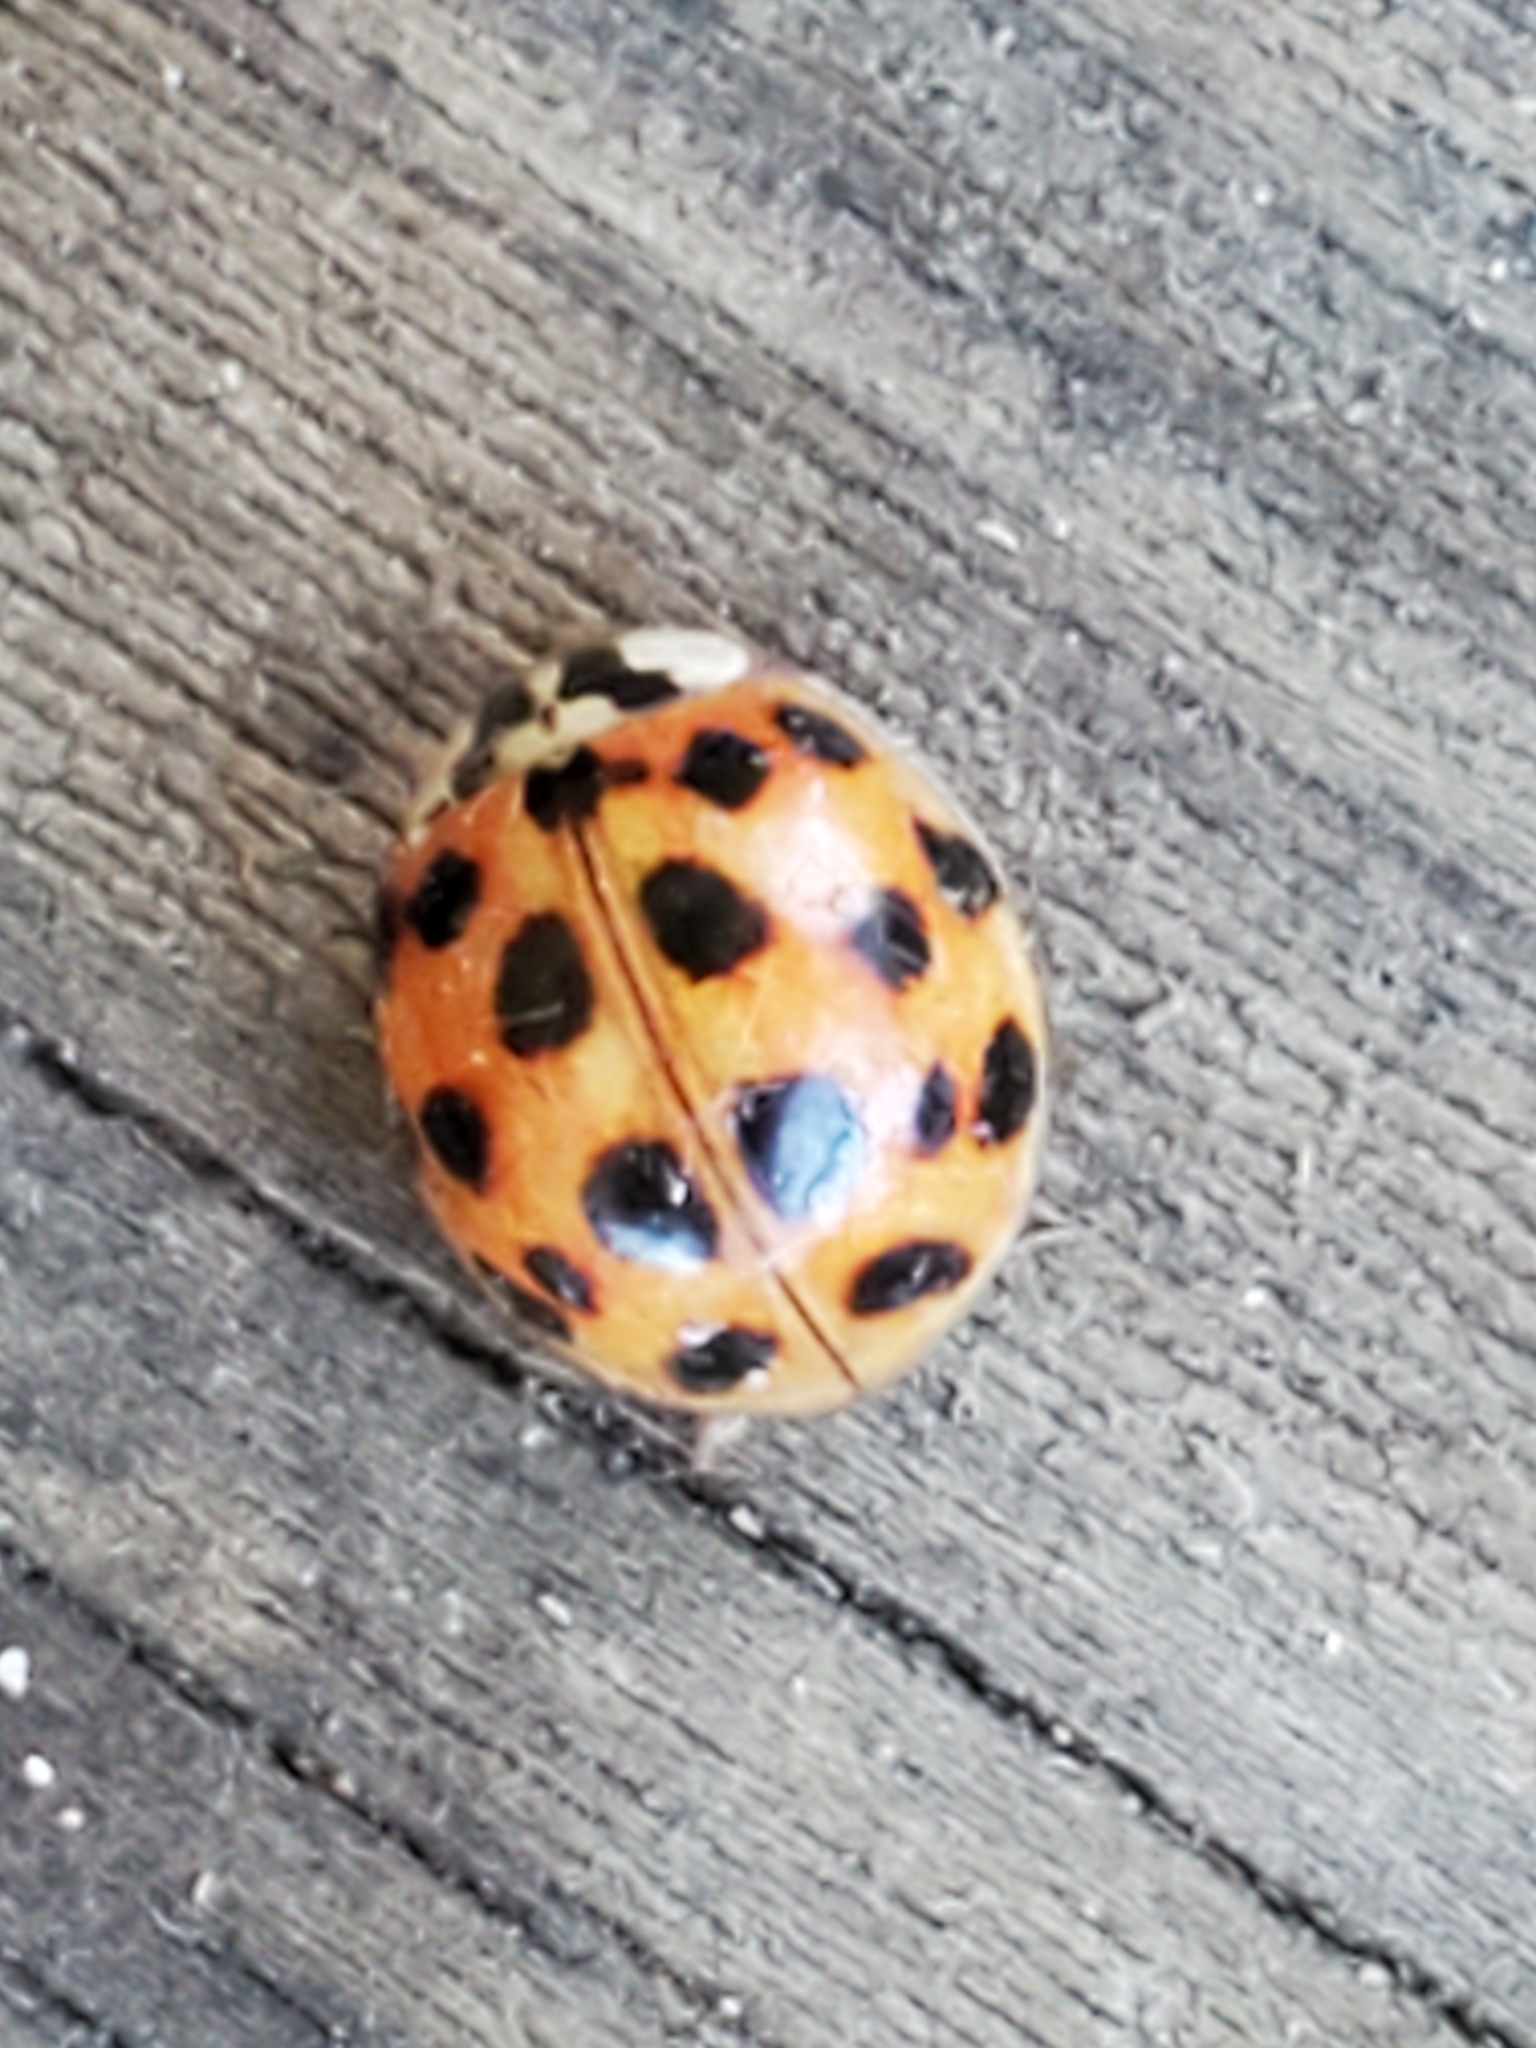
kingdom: Animalia
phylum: Arthropoda
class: Insecta
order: Coleoptera
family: Coccinellidae
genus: Harmonia
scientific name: Harmonia axyridis
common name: Harlequin ladybird
